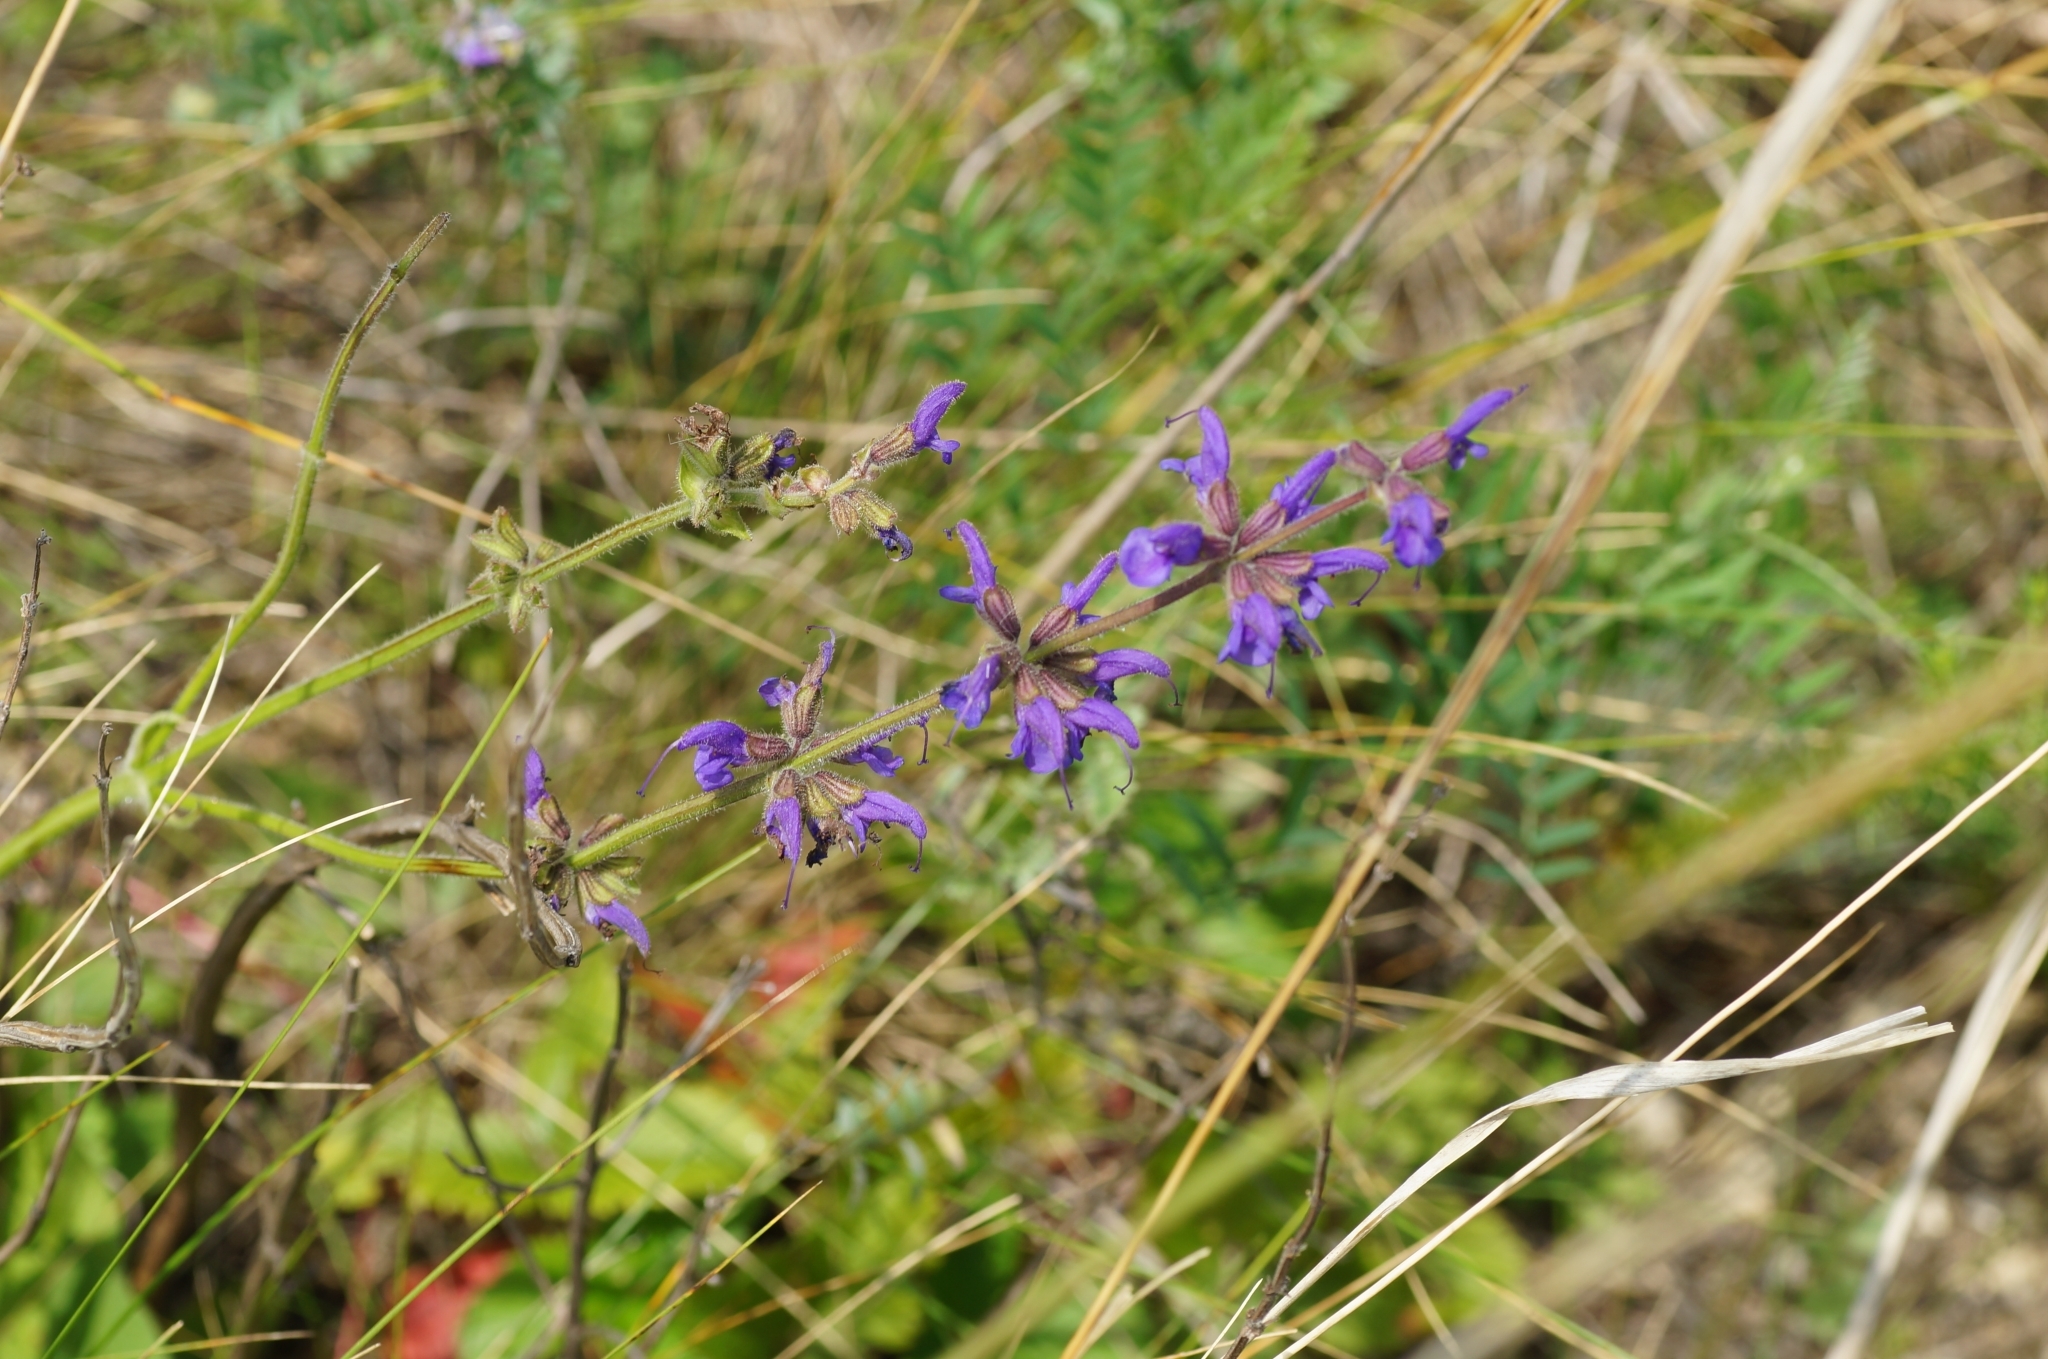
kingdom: Plantae
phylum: Tracheophyta
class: Magnoliopsida
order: Lamiales
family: Lamiaceae
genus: Salvia
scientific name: Salvia pratensis
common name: Meadow sage
